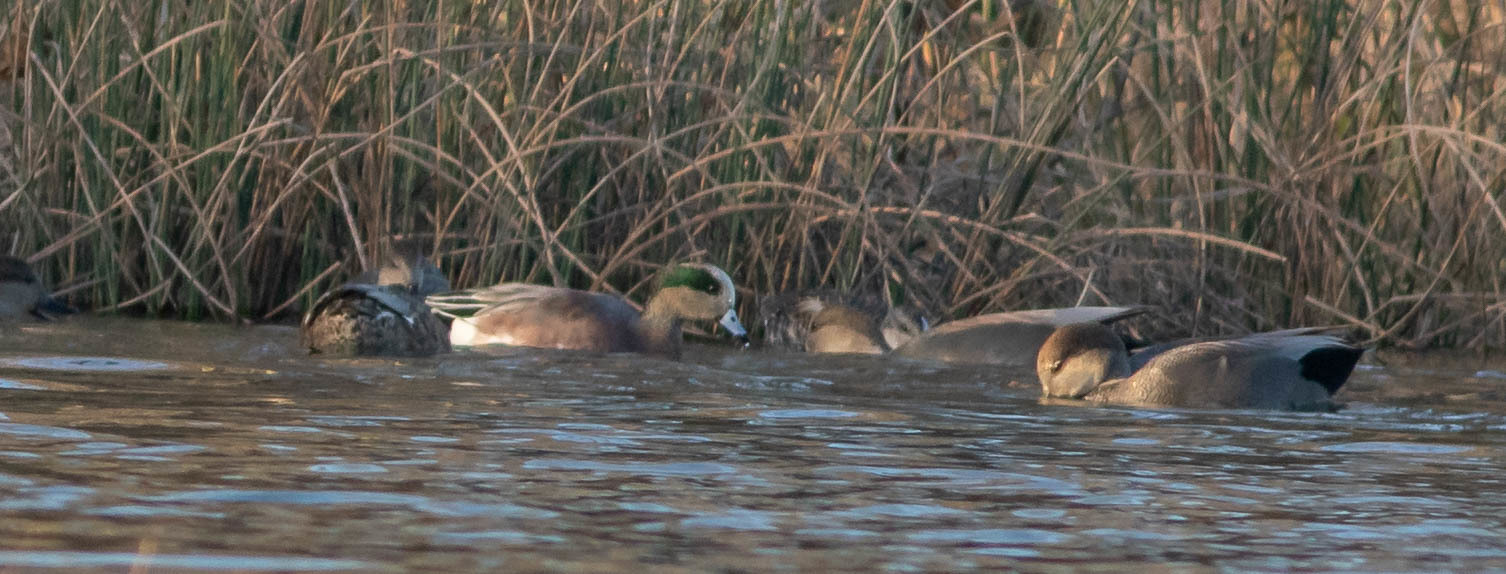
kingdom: Animalia
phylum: Chordata
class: Aves
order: Anseriformes
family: Anatidae
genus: Mareca
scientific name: Mareca americana
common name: American wigeon
